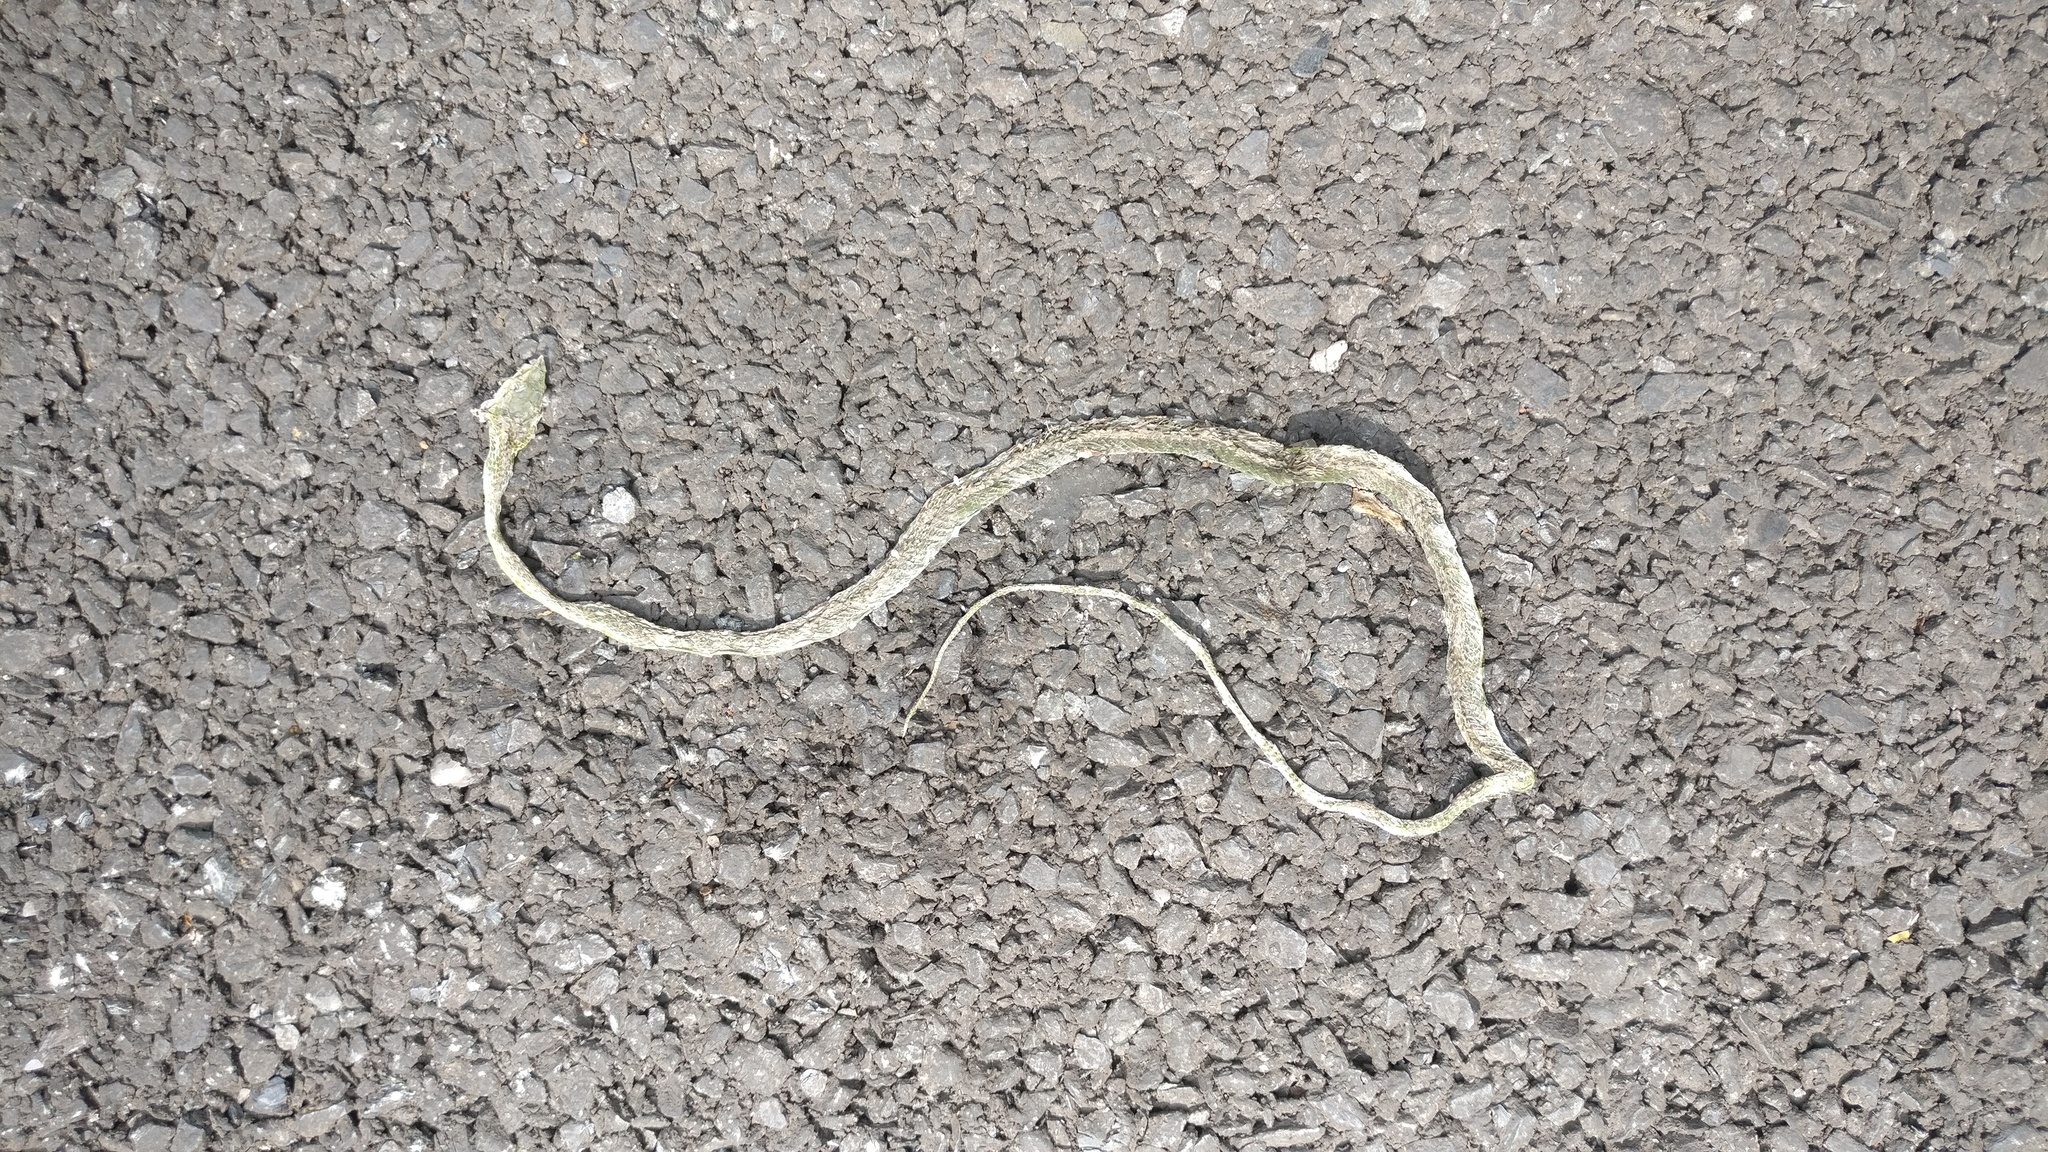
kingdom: Animalia
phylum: Chordata
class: Squamata
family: Colubridae
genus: Ahaetulla
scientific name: Ahaetulla borealis
